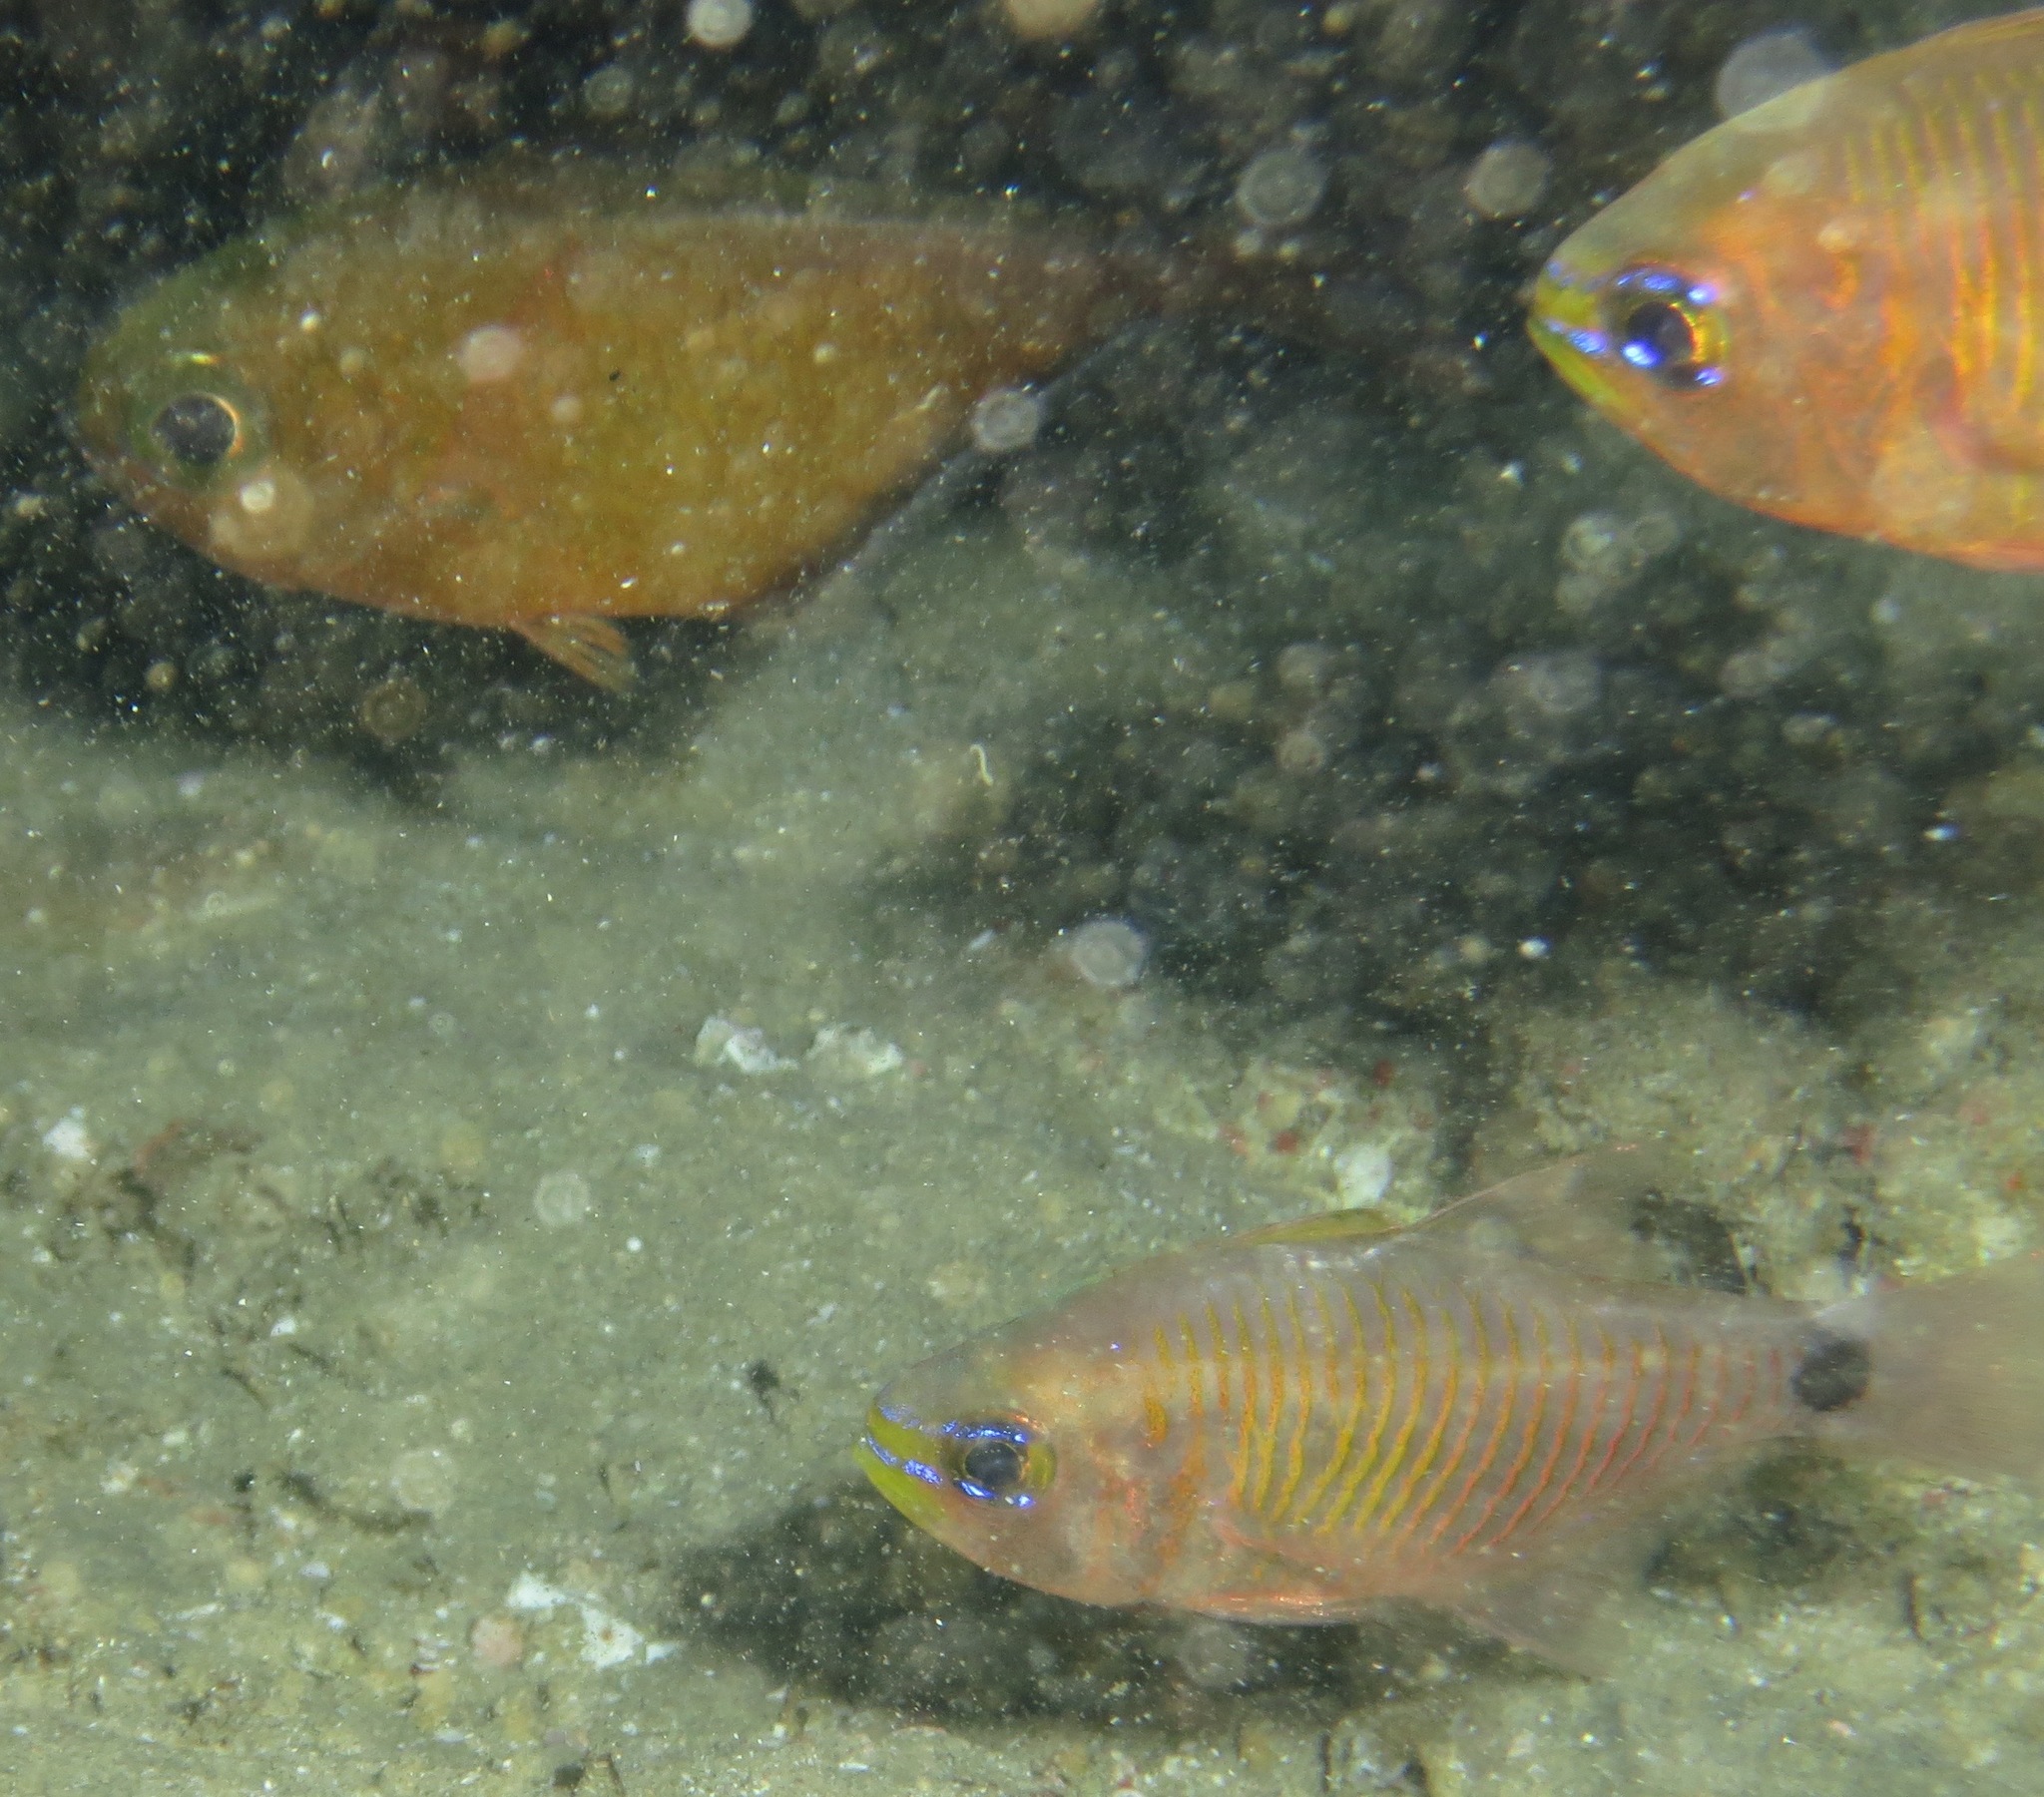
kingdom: Animalia
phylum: Chordata
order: Perciformes
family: Apogonidae
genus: Taeniamia
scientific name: Taeniamia fucata
